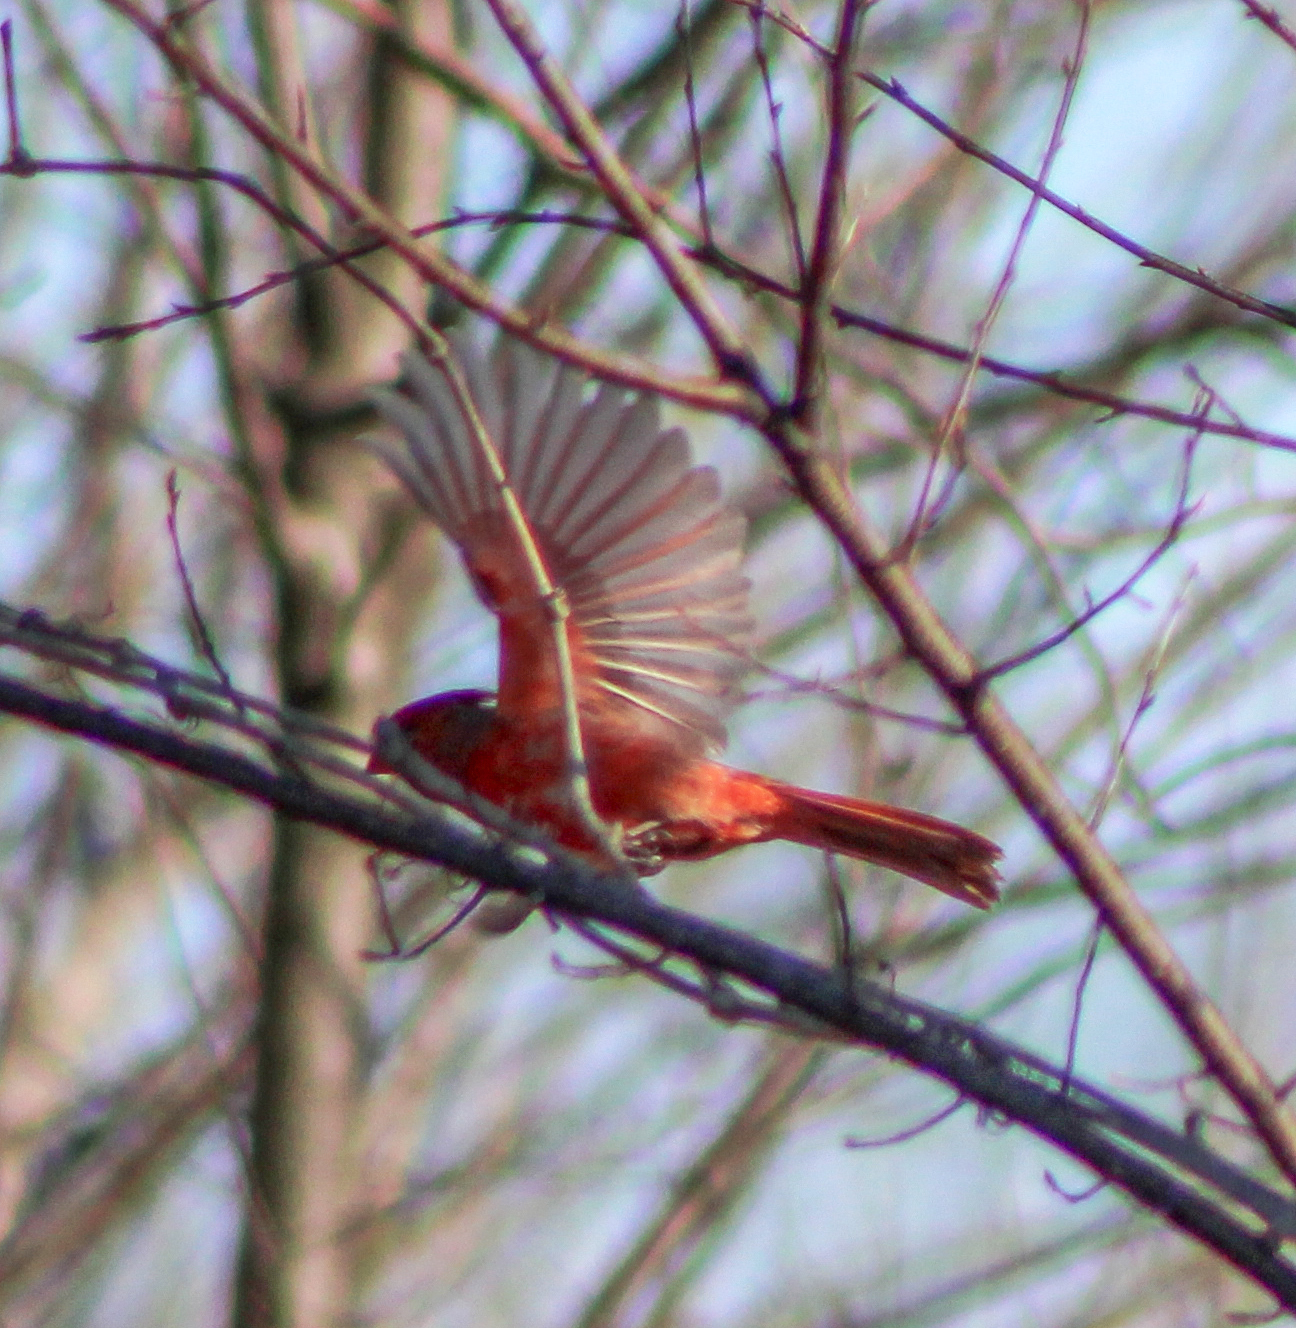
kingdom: Animalia
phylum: Chordata
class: Aves
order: Passeriformes
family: Cardinalidae
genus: Cardinalis
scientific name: Cardinalis cardinalis
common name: Northern cardinal
